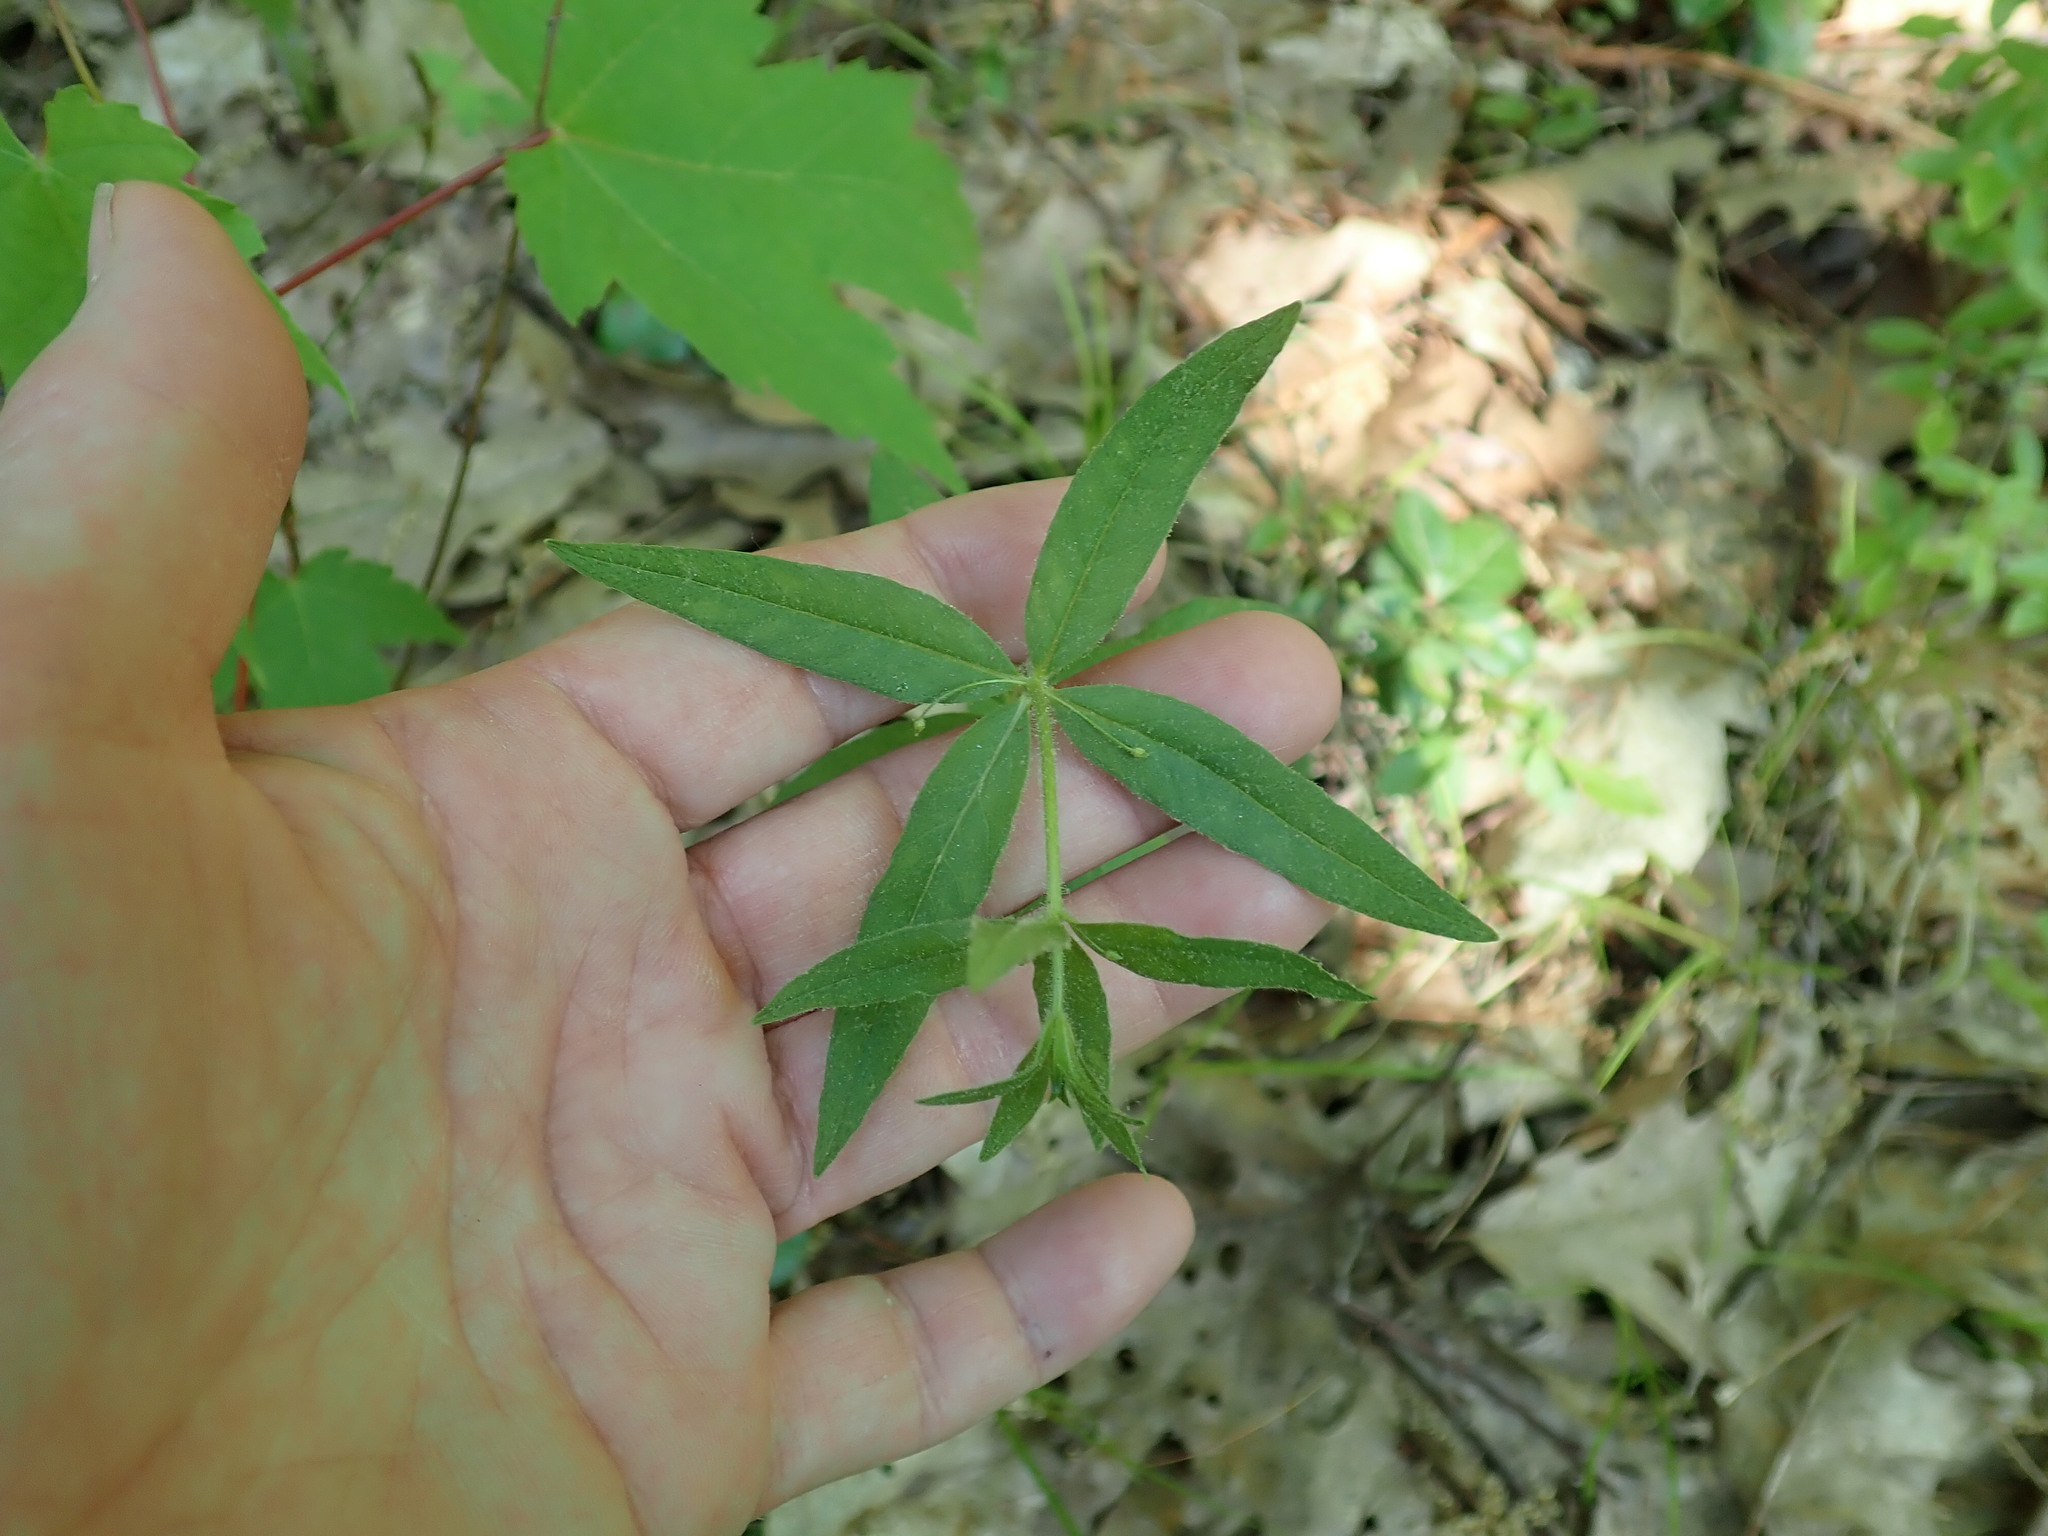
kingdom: Plantae
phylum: Tracheophyta
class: Magnoliopsida
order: Ericales
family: Primulaceae
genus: Lysimachia
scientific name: Lysimachia quadrifolia
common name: Whorled loosestrife
